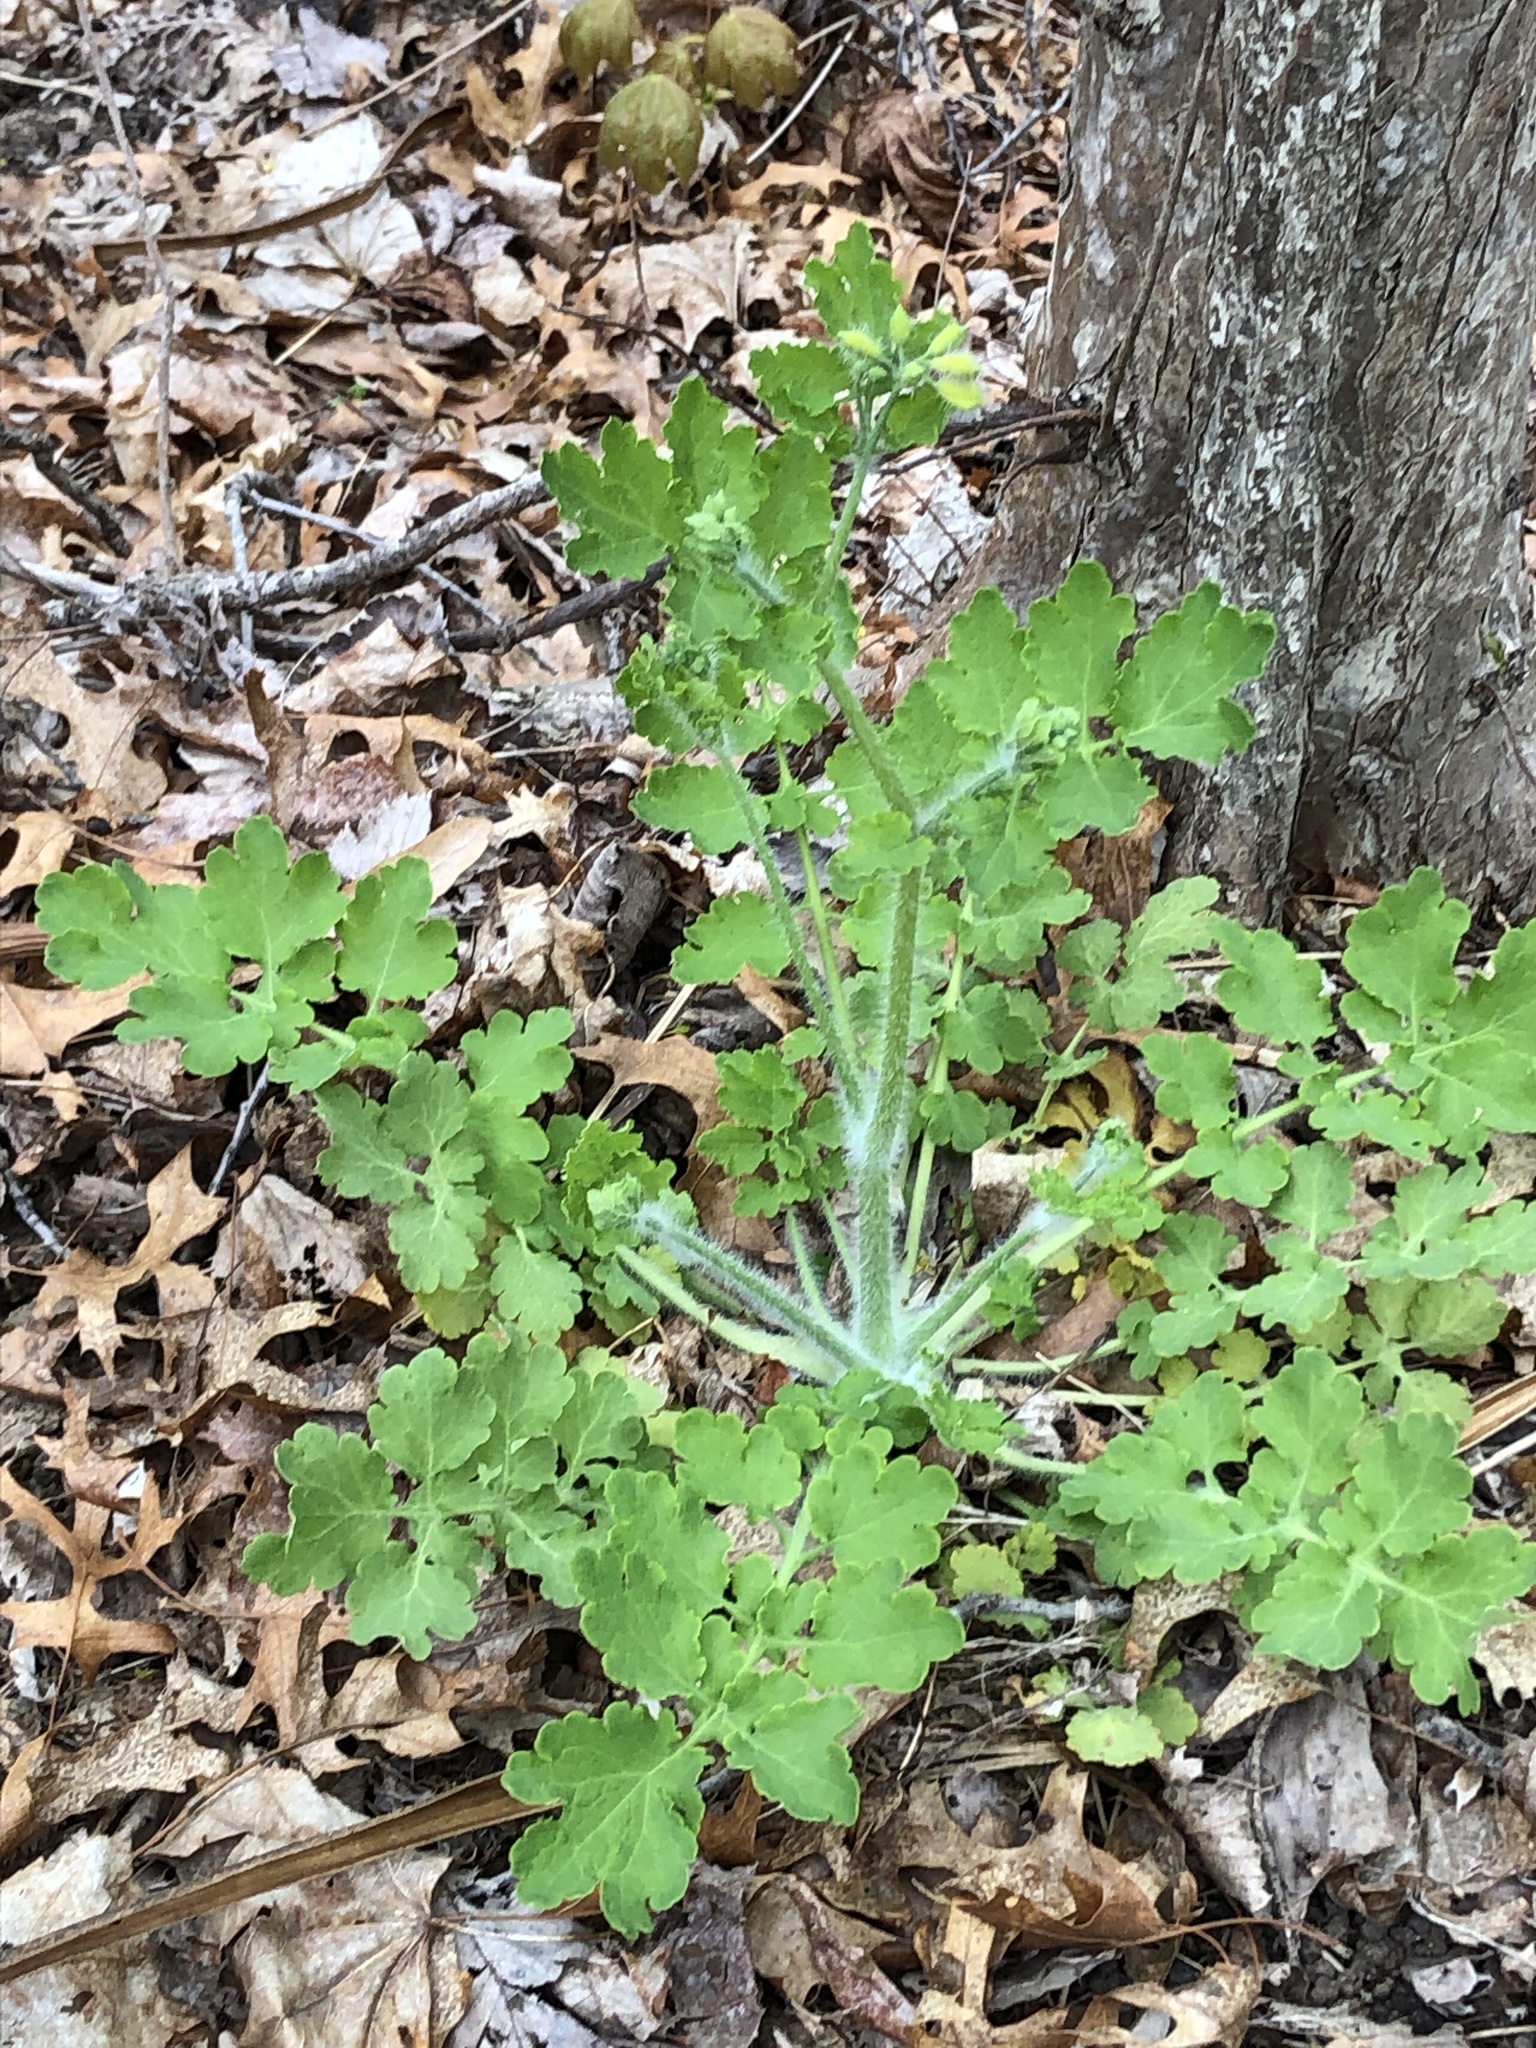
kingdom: Plantae
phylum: Tracheophyta
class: Magnoliopsida
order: Ranunculales
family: Papaveraceae
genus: Chelidonium
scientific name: Chelidonium majus
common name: Greater celandine
